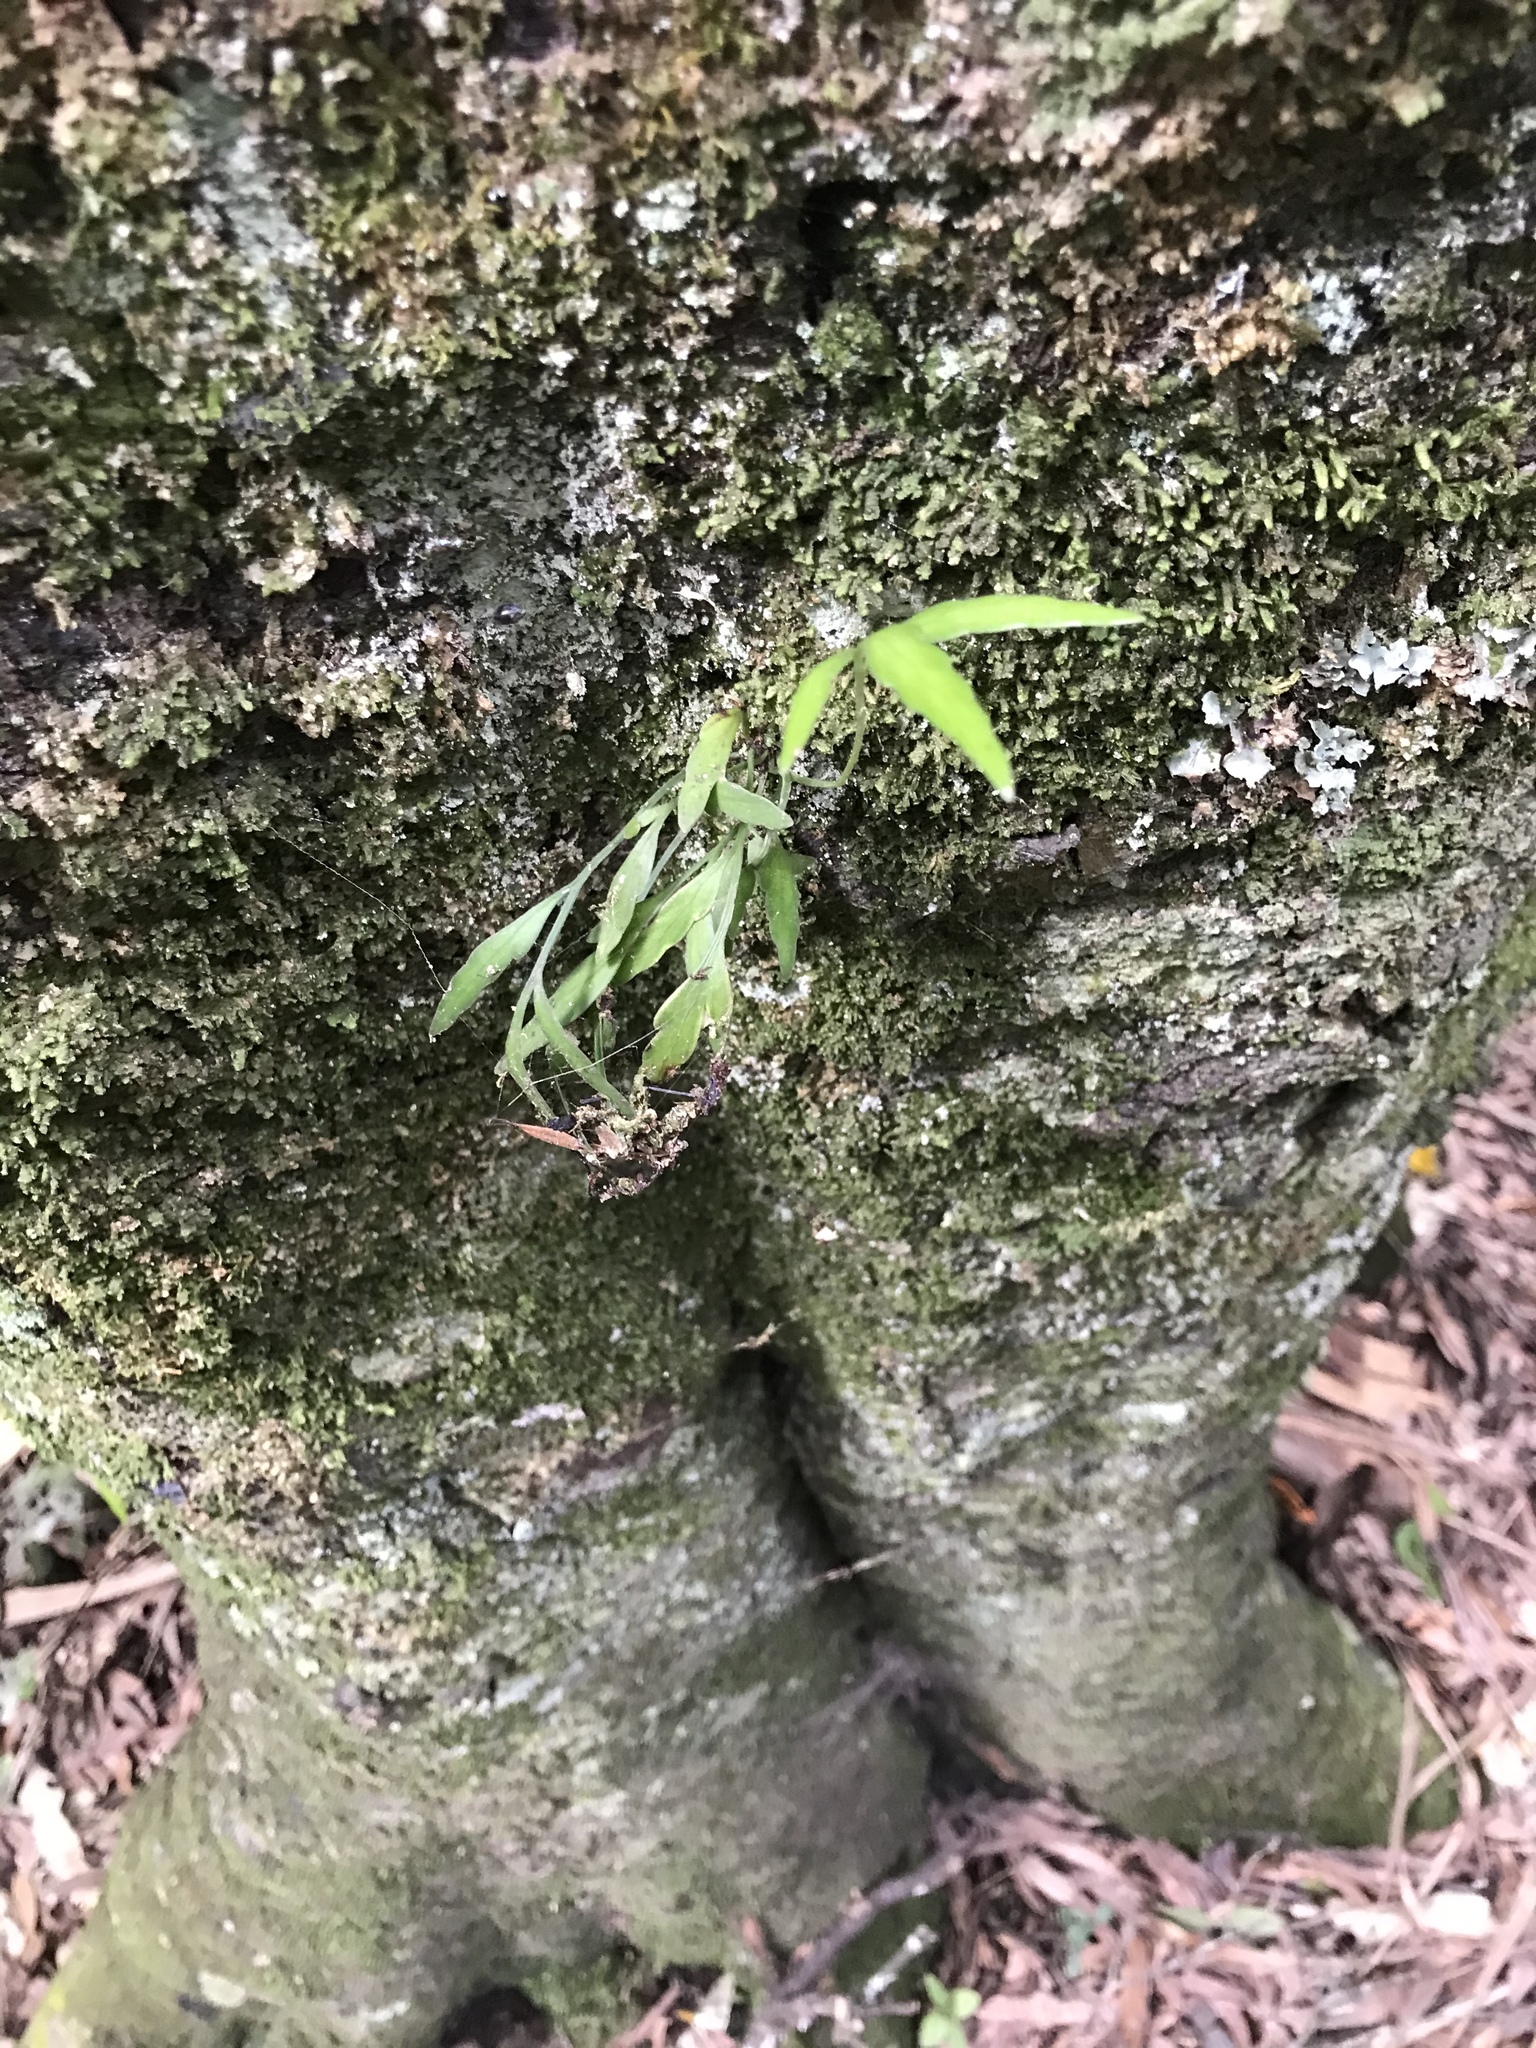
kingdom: Plantae
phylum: Tracheophyta
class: Polypodiopsida
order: Polypodiales
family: Aspleniaceae
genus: Asplenium
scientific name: Asplenium flaccidum
